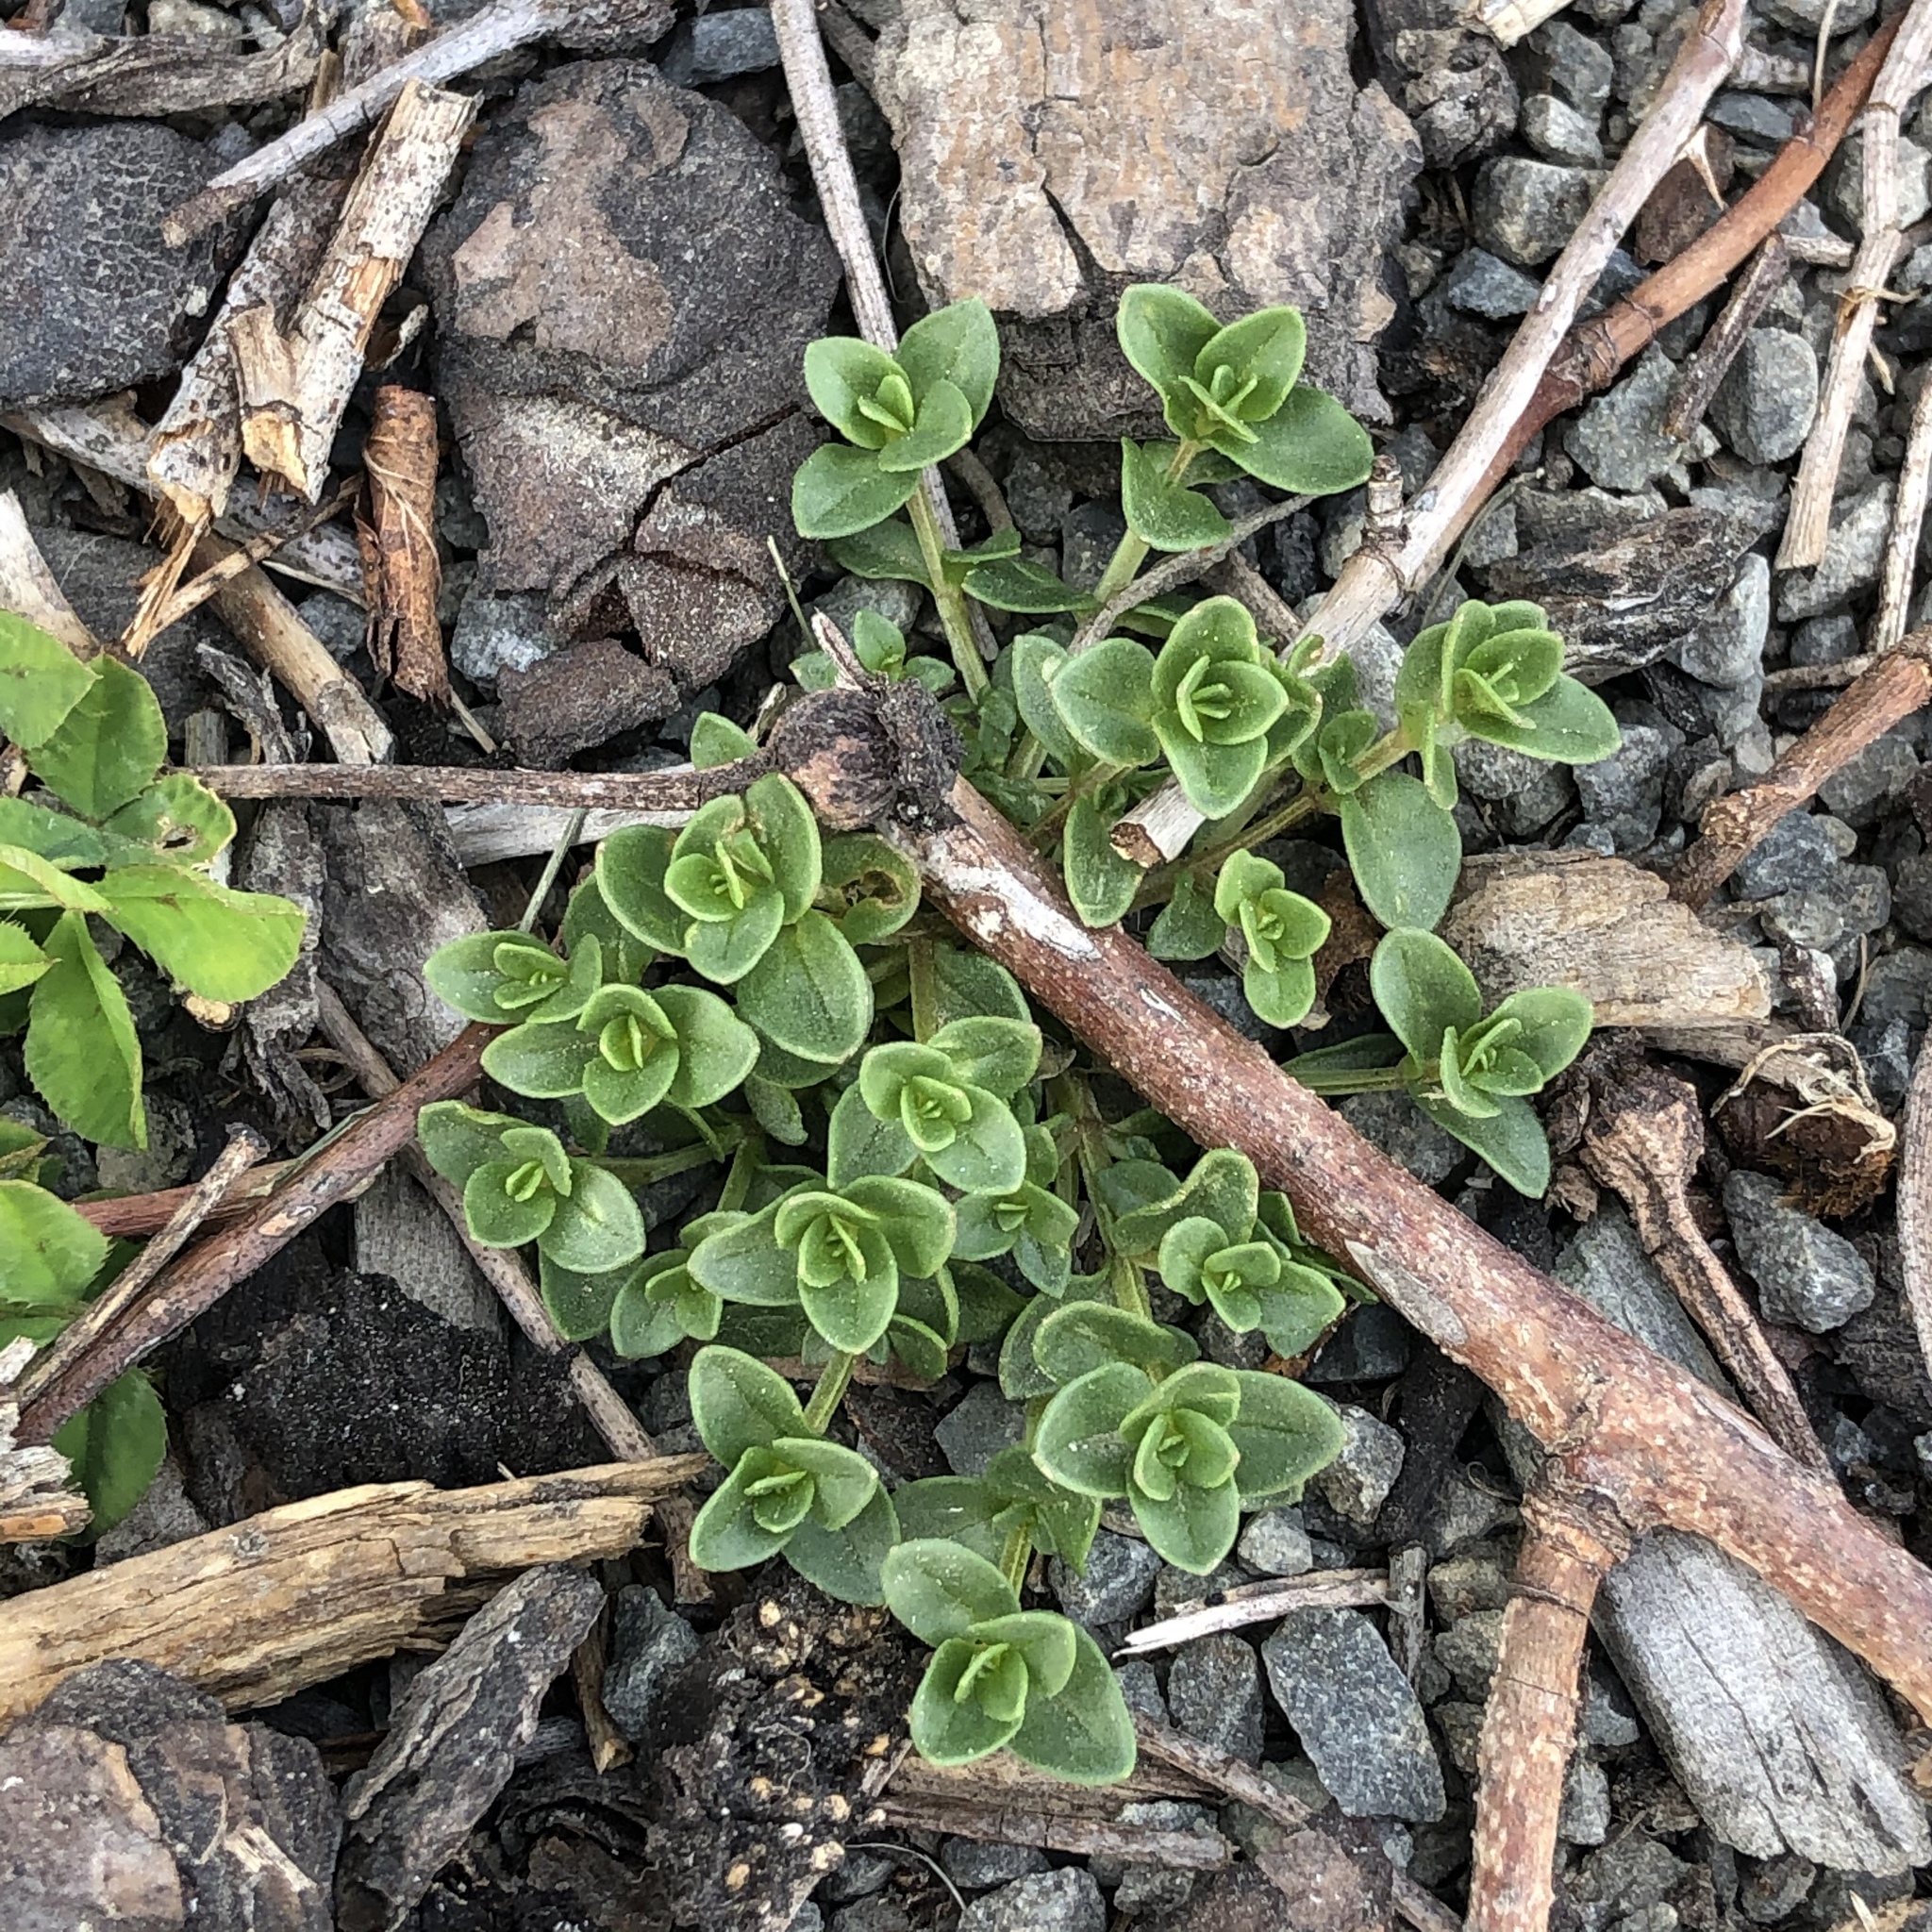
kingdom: Plantae
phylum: Tracheophyta
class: Magnoliopsida
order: Ericales
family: Primulaceae
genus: Lysimachia
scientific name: Lysimachia arvensis
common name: Scarlet pimpernel
